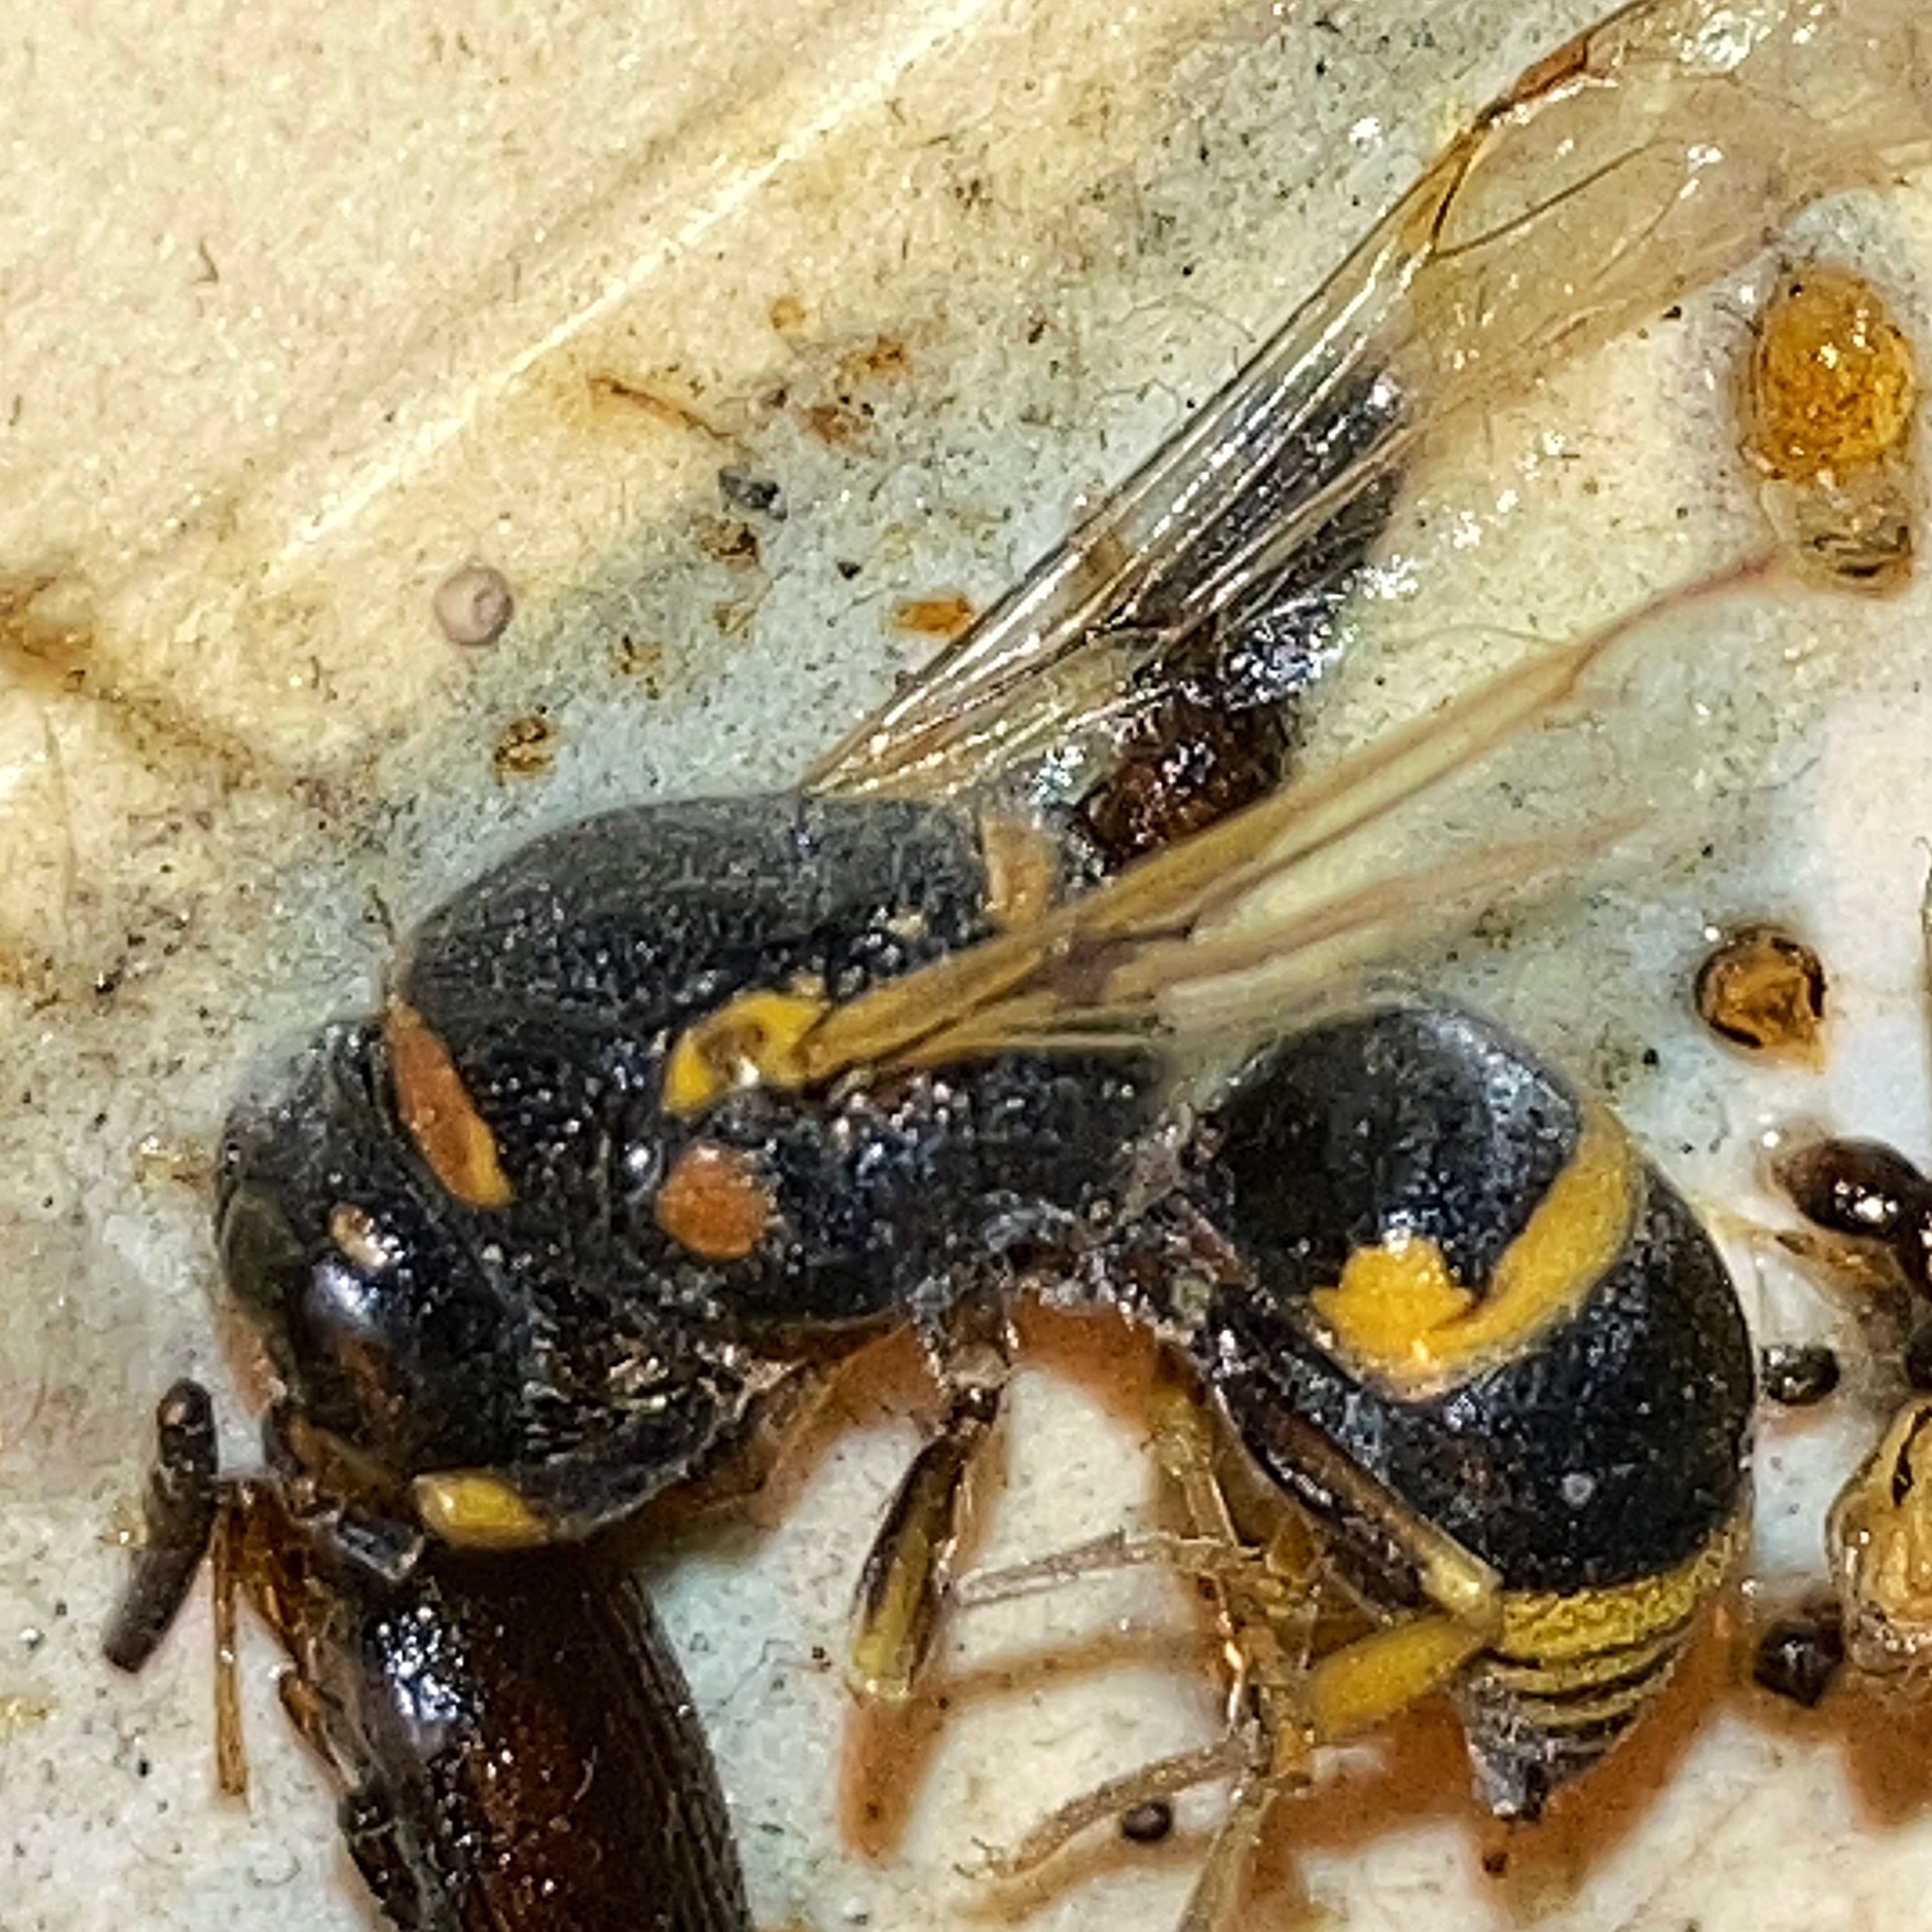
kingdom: Animalia
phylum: Arthropoda
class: Insecta
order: Hymenoptera
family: Eumenidae
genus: Euodynerus
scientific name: Euodynerus foraminatus
